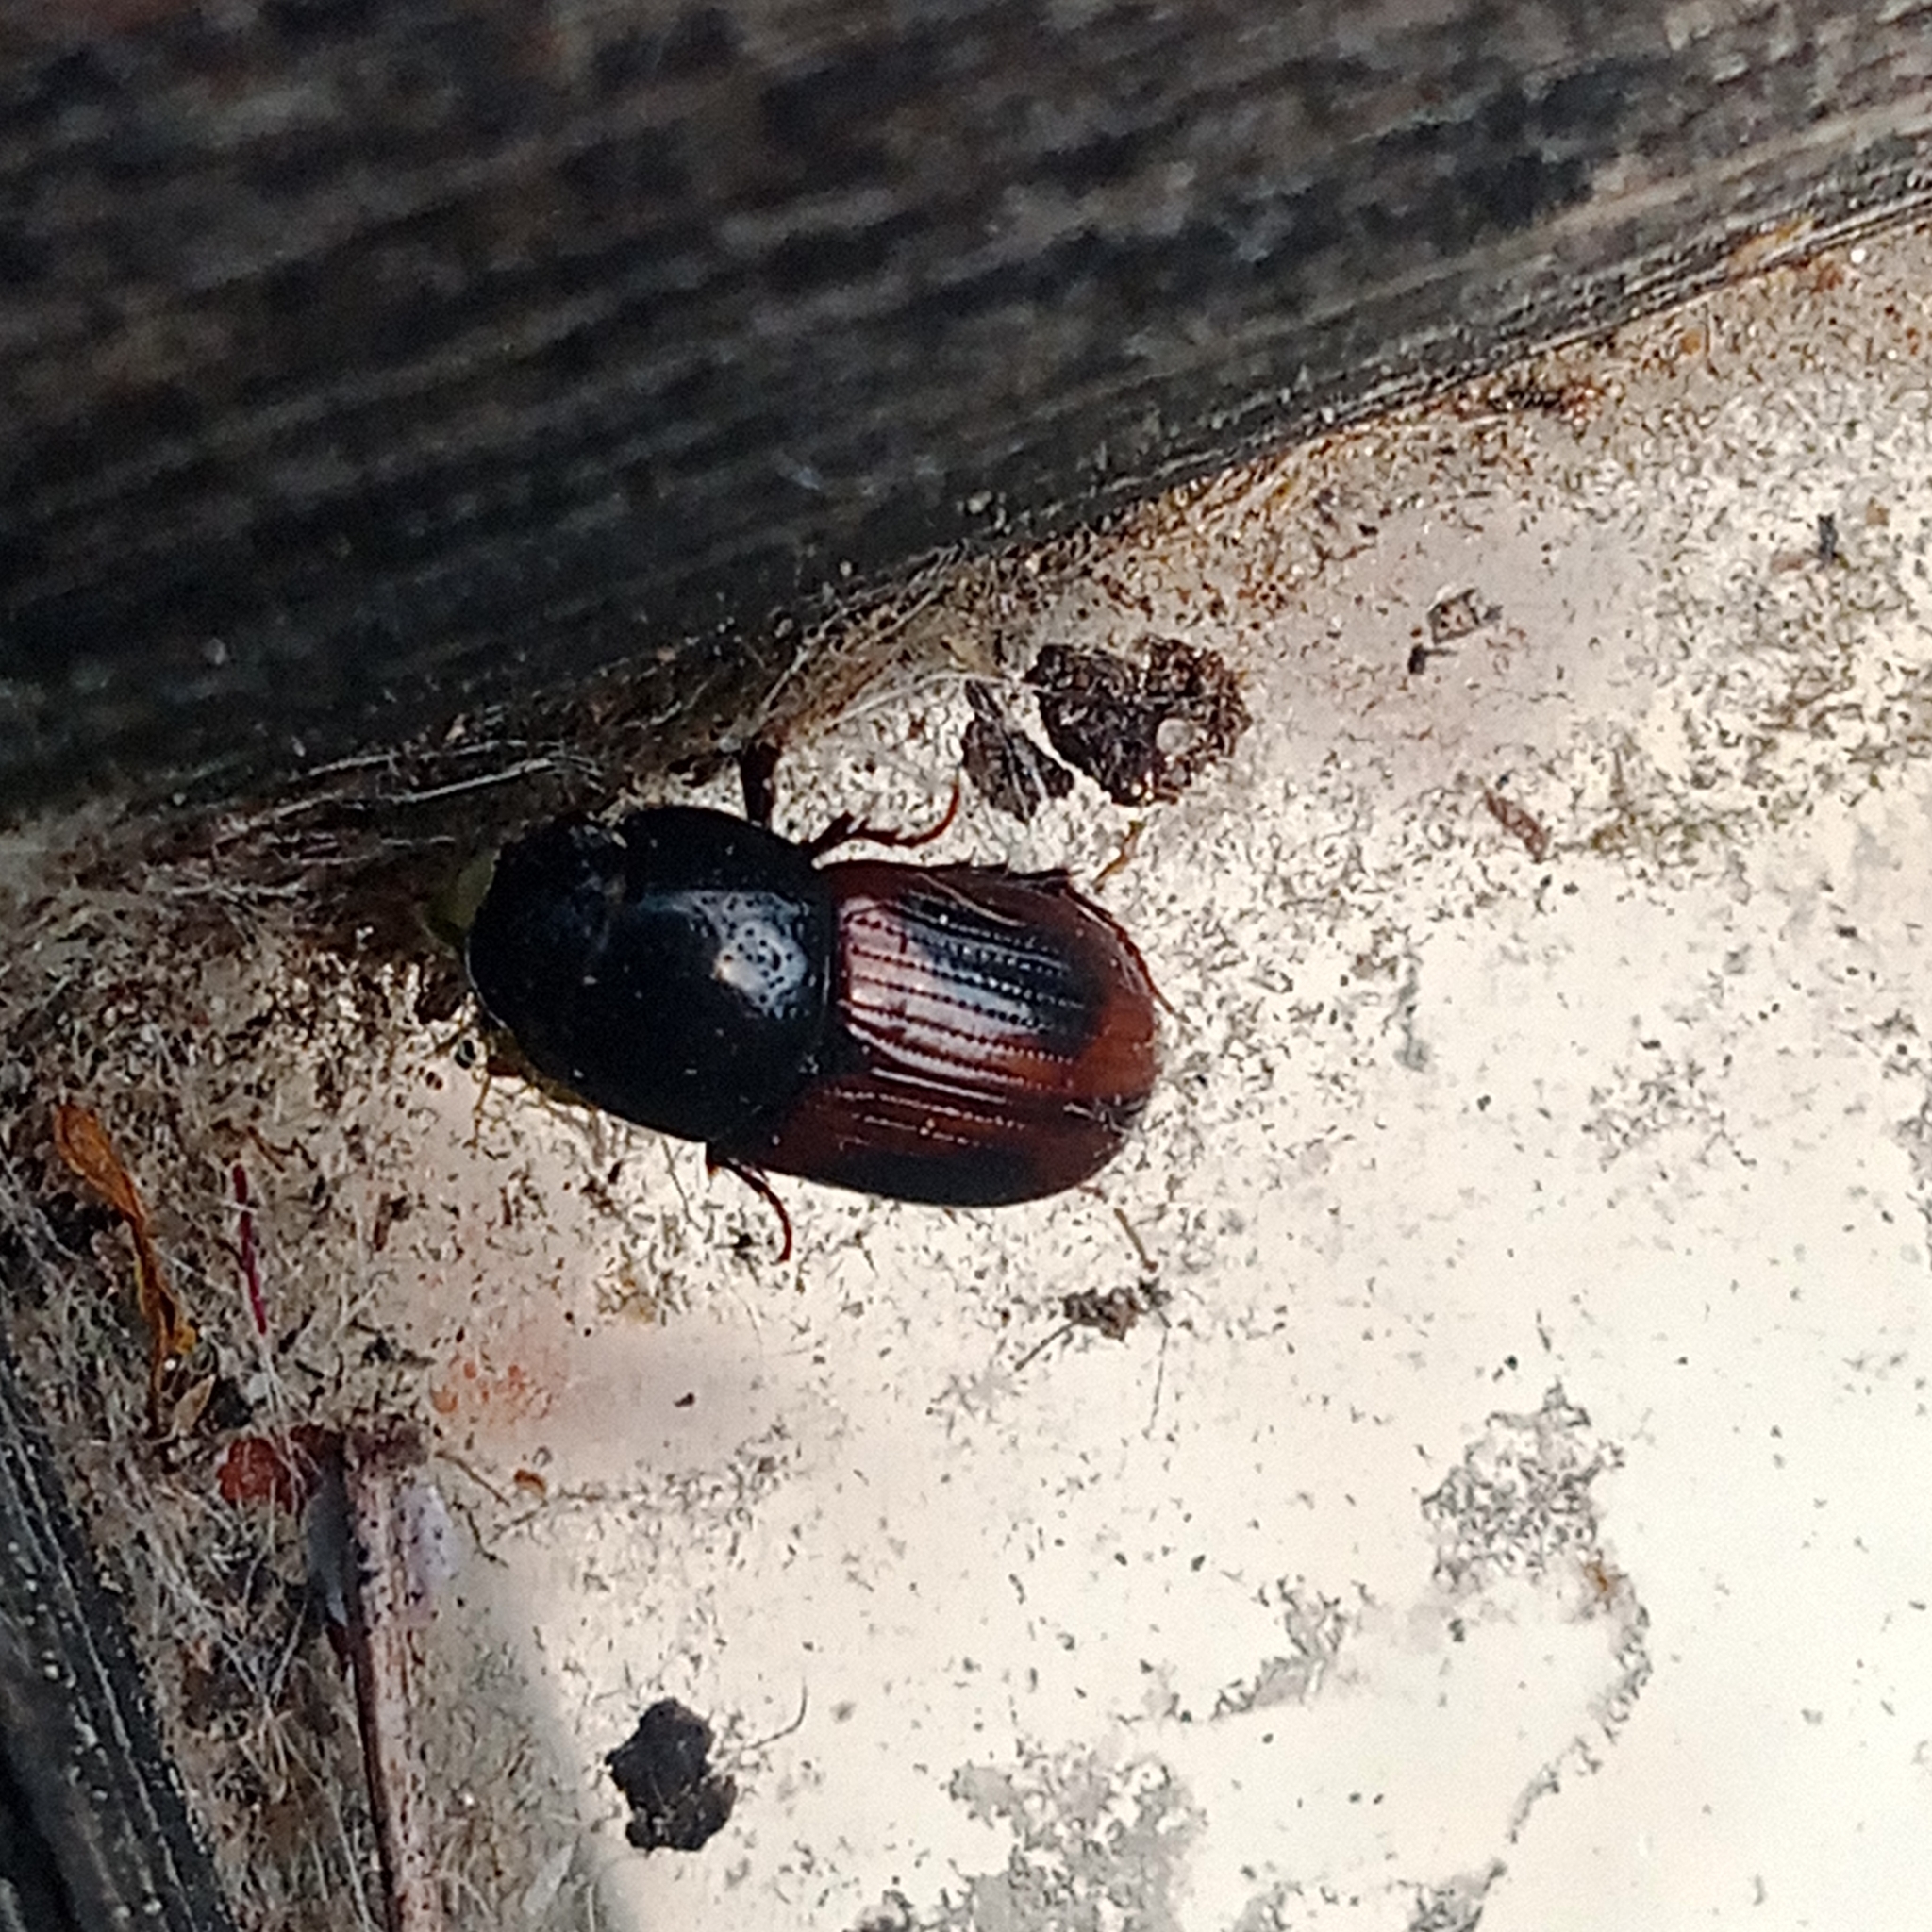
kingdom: Animalia
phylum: Arthropoda
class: Insecta
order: Coleoptera
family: Scarabaeidae
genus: Phaeaphodius
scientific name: Phaeaphodius rectus
